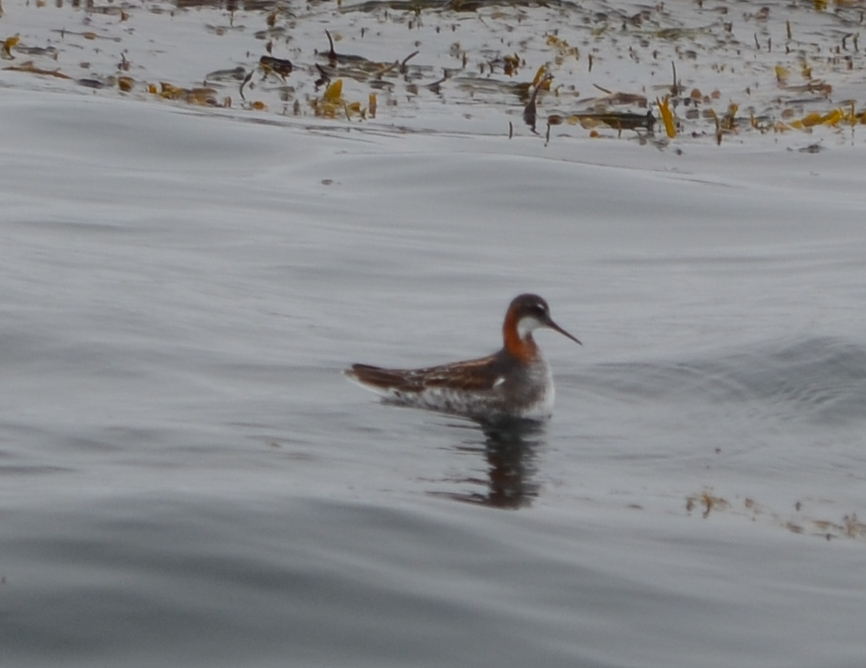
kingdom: Animalia
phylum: Chordata
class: Aves
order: Charadriiformes
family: Scolopacidae
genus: Phalaropus
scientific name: Phalaropus lobatus
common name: Red-necked phalarope
